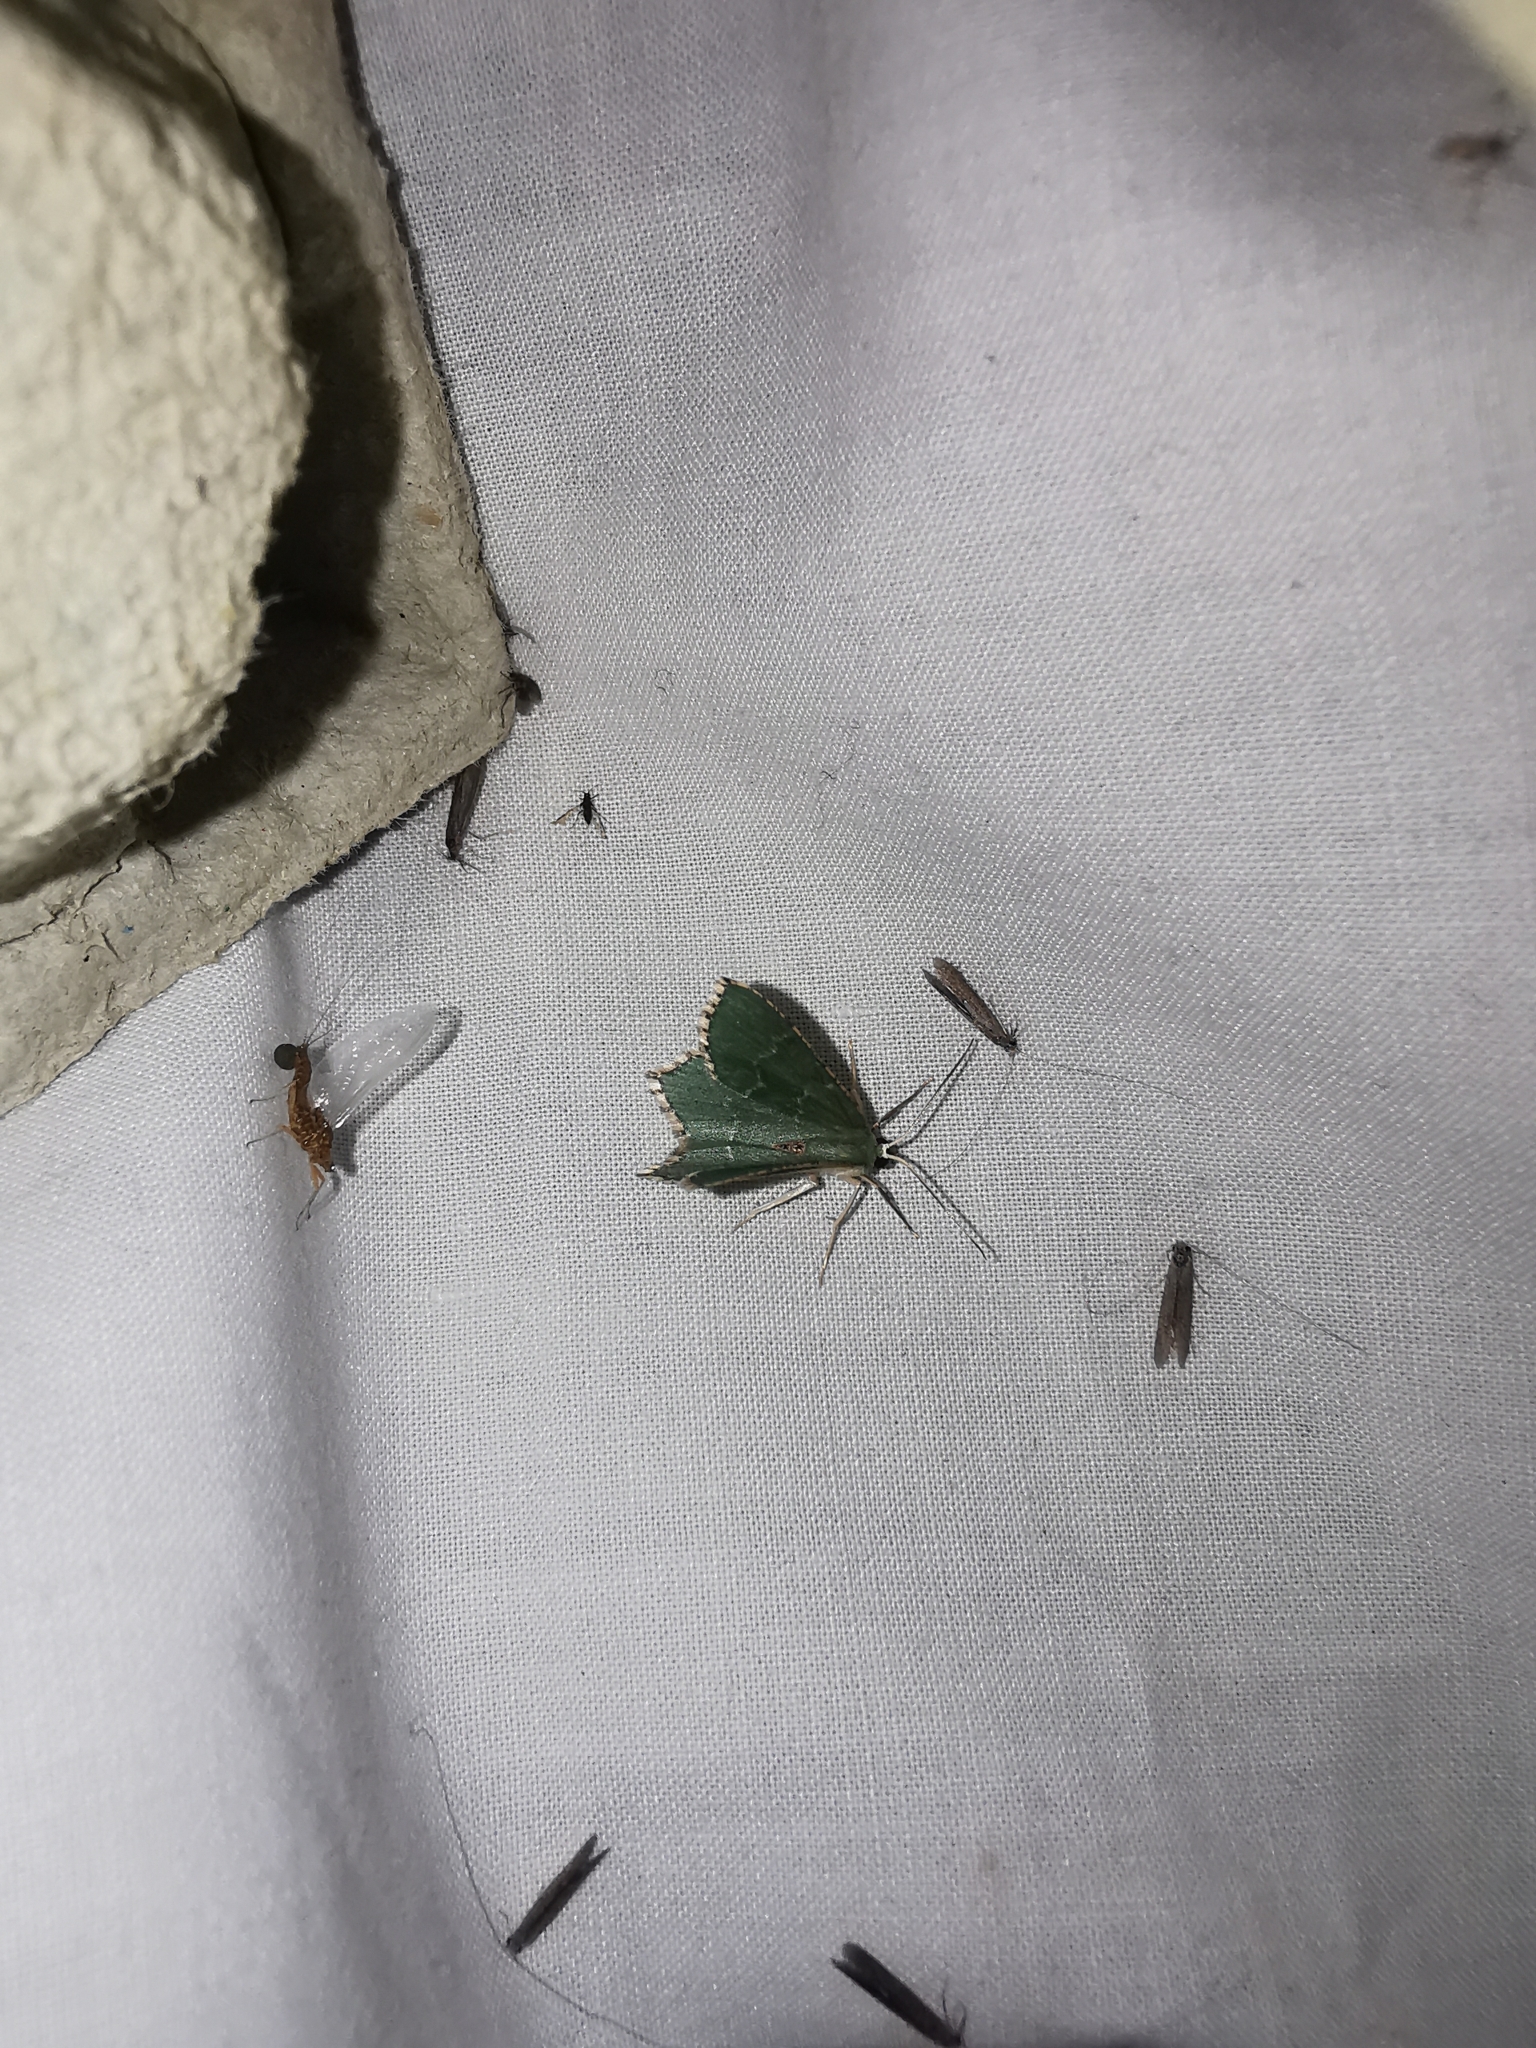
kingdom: Animalia
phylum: Arthropoda
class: Insecta
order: Lepidoptera
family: Geometridae
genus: Hemithea
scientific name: Hemithea aestivaria
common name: Common emerald
